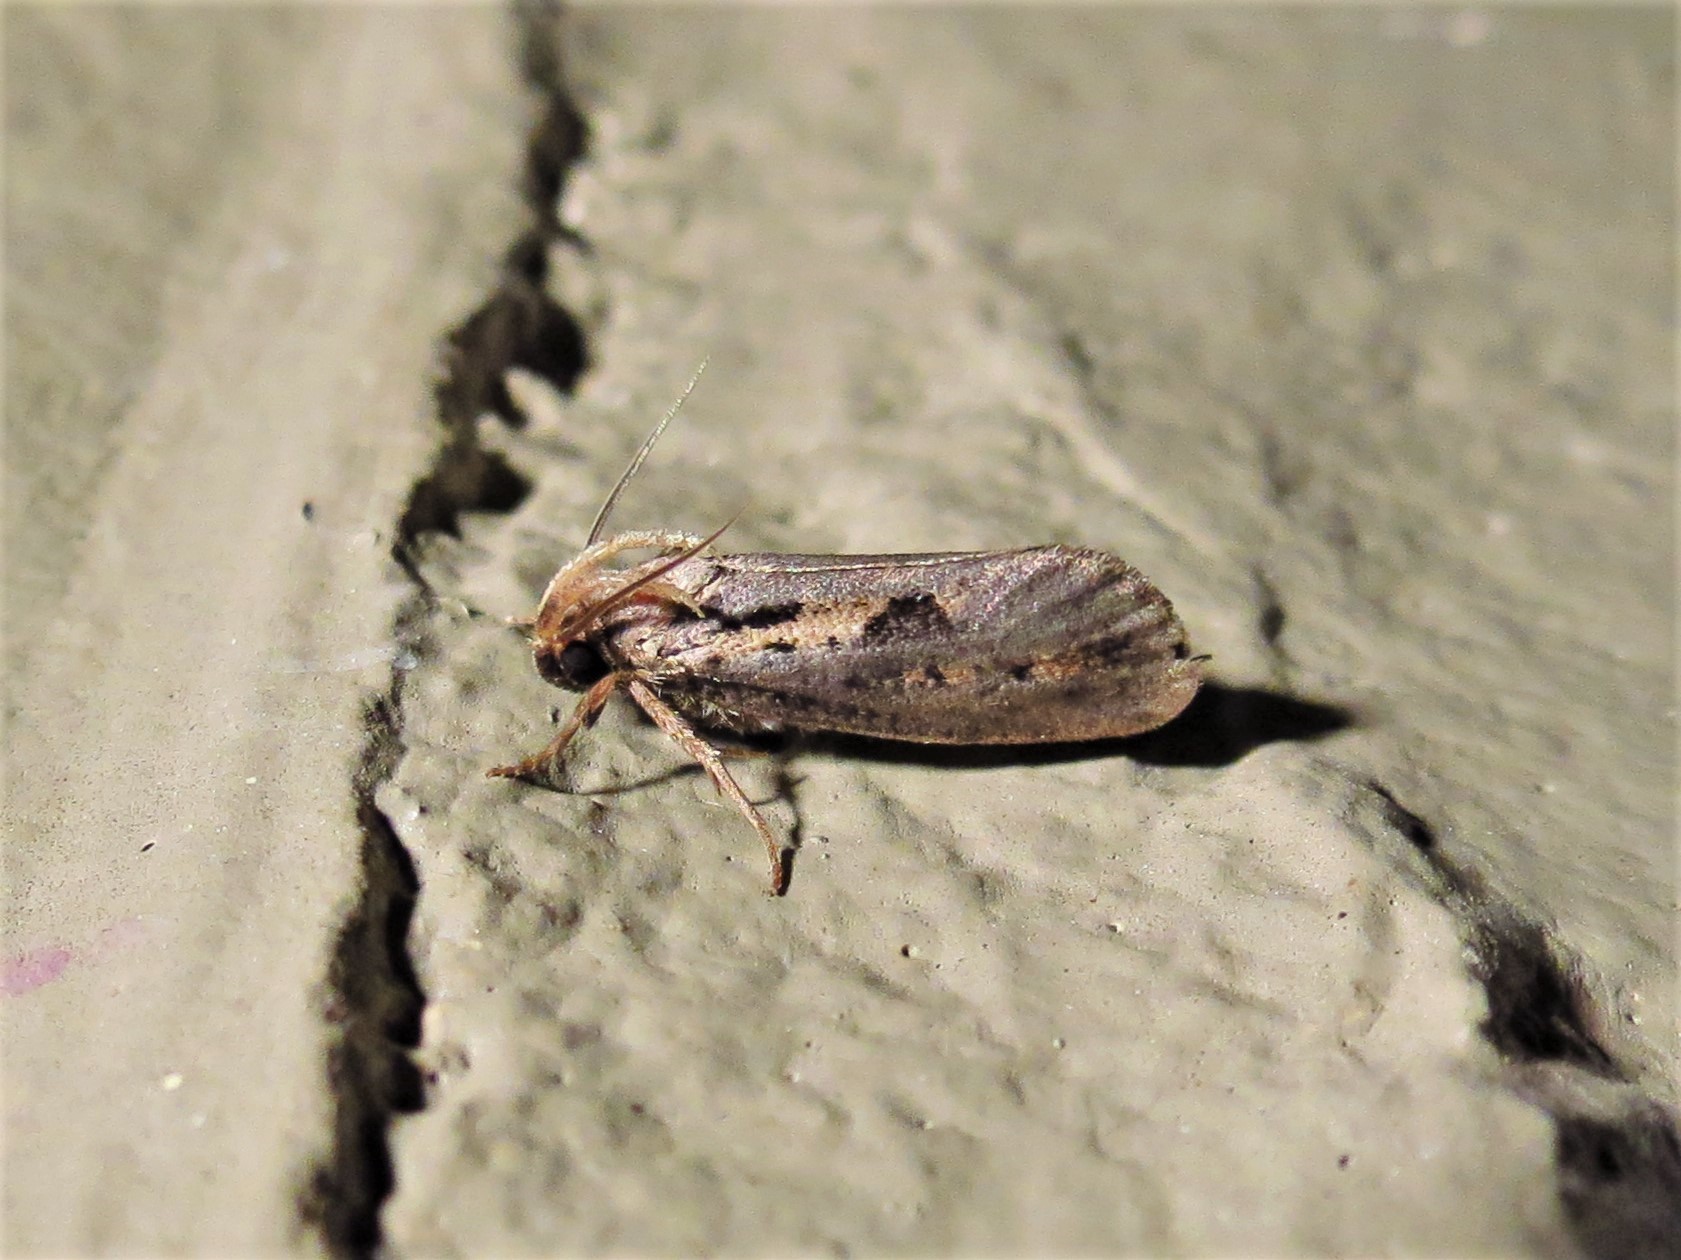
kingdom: Animalia
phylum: Arthropoda
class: Insecta
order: Lepidoptera
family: Tineidae
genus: Acrolophus
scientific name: Acrolophus popeanella
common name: Clemens' grass tubeworm moth
